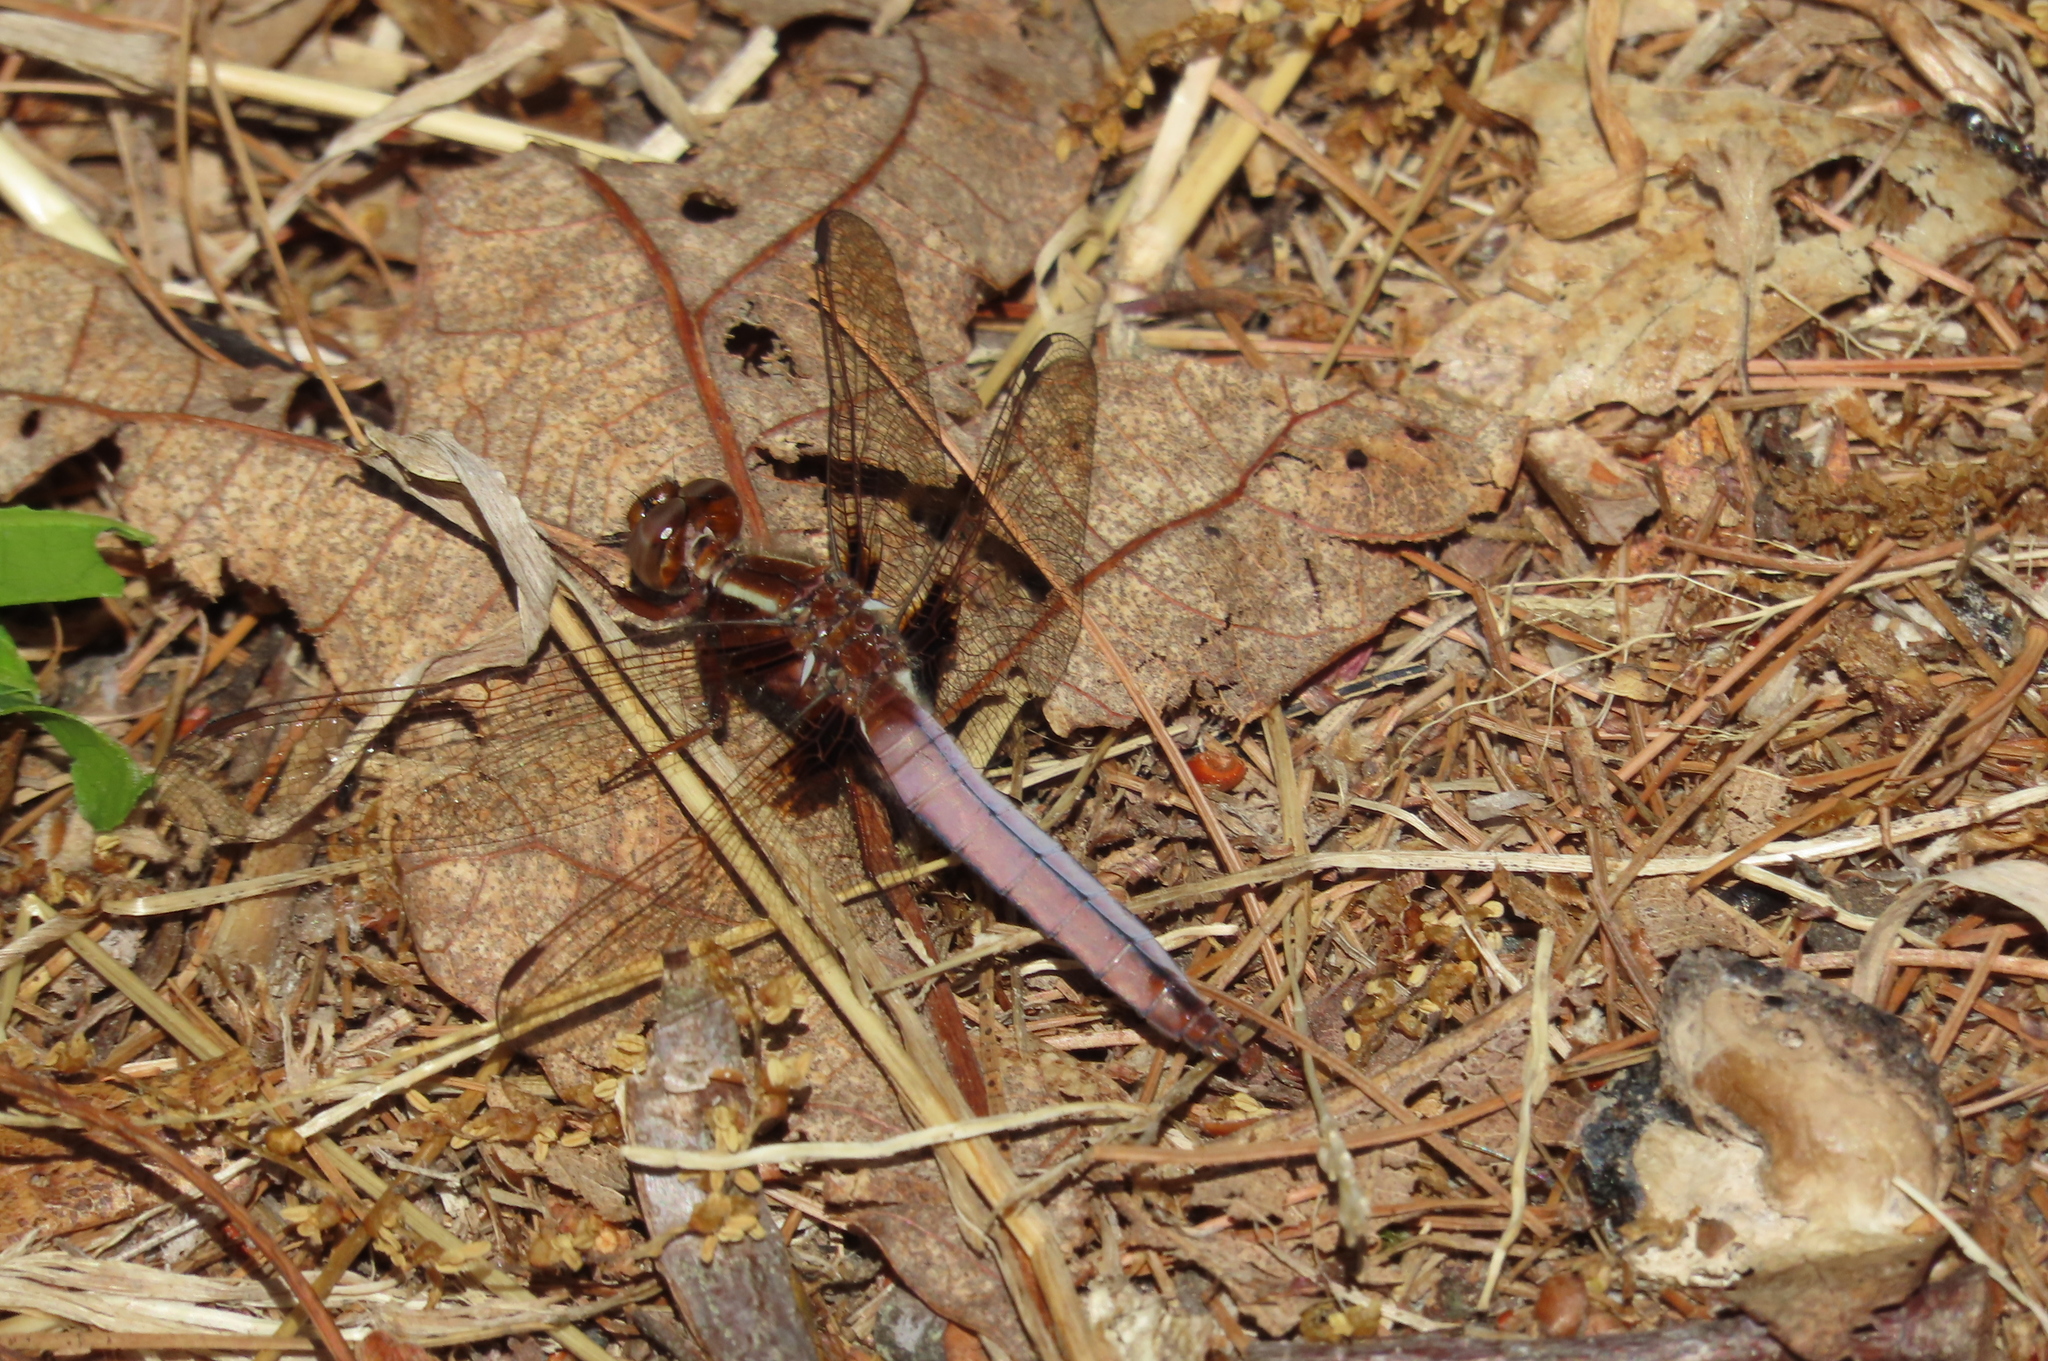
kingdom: Animalia
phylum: Arthropoda
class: Insecta
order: Odonata
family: Libellulidae
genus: Ladona
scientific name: Ladona exusta
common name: Libellule embrasée
